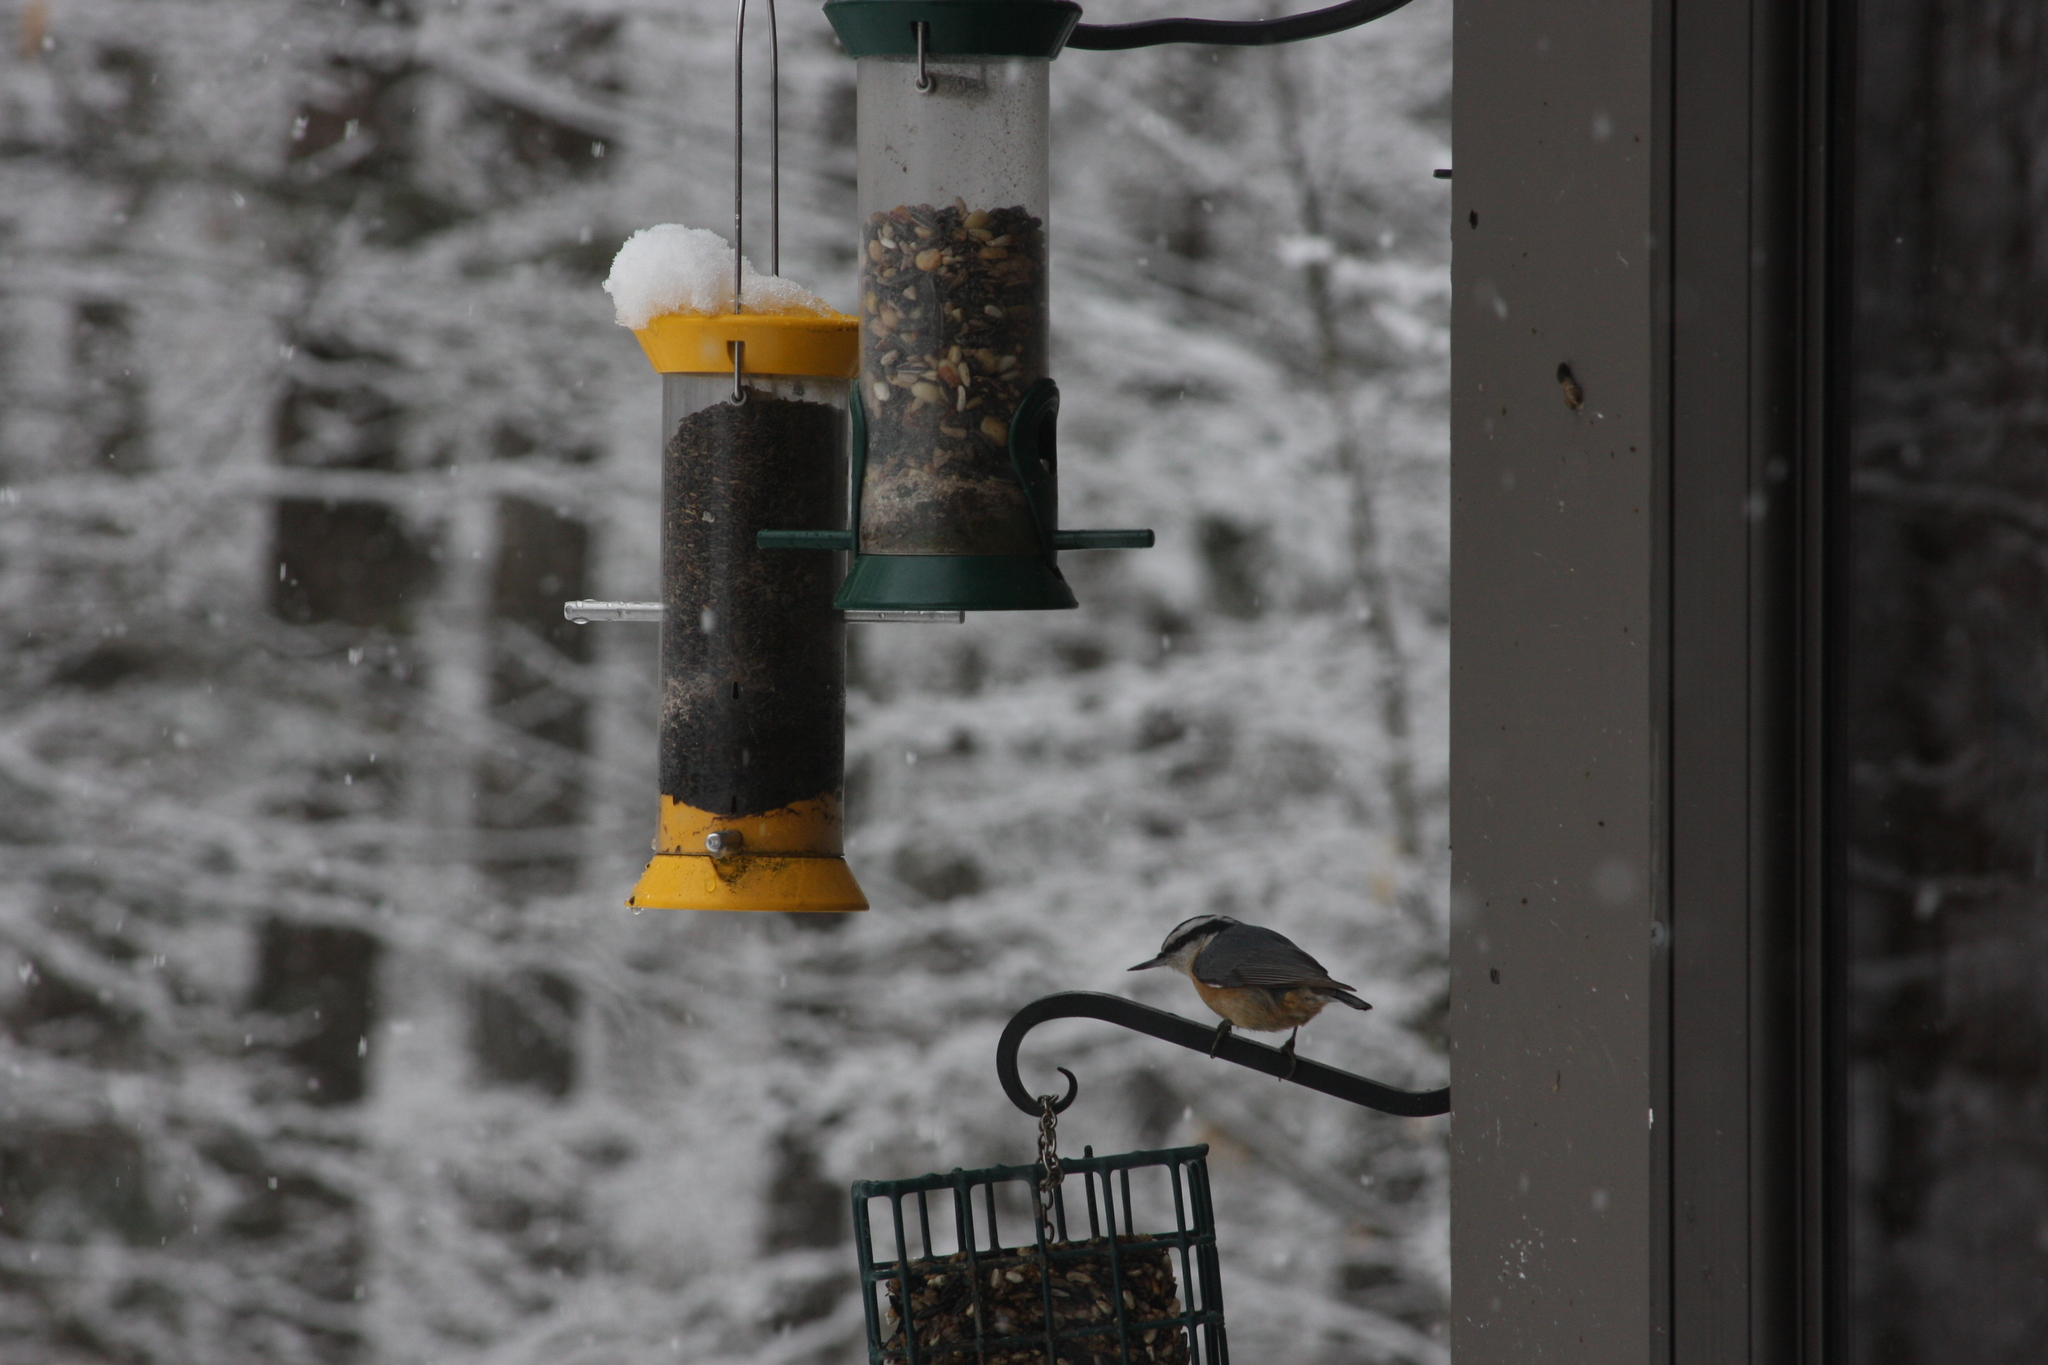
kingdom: Animalia
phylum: Chordata
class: Aves
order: Passeriformes
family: Sittidae
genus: Sitta
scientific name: Sitta canadensis
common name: Red-breasted nuthatch
